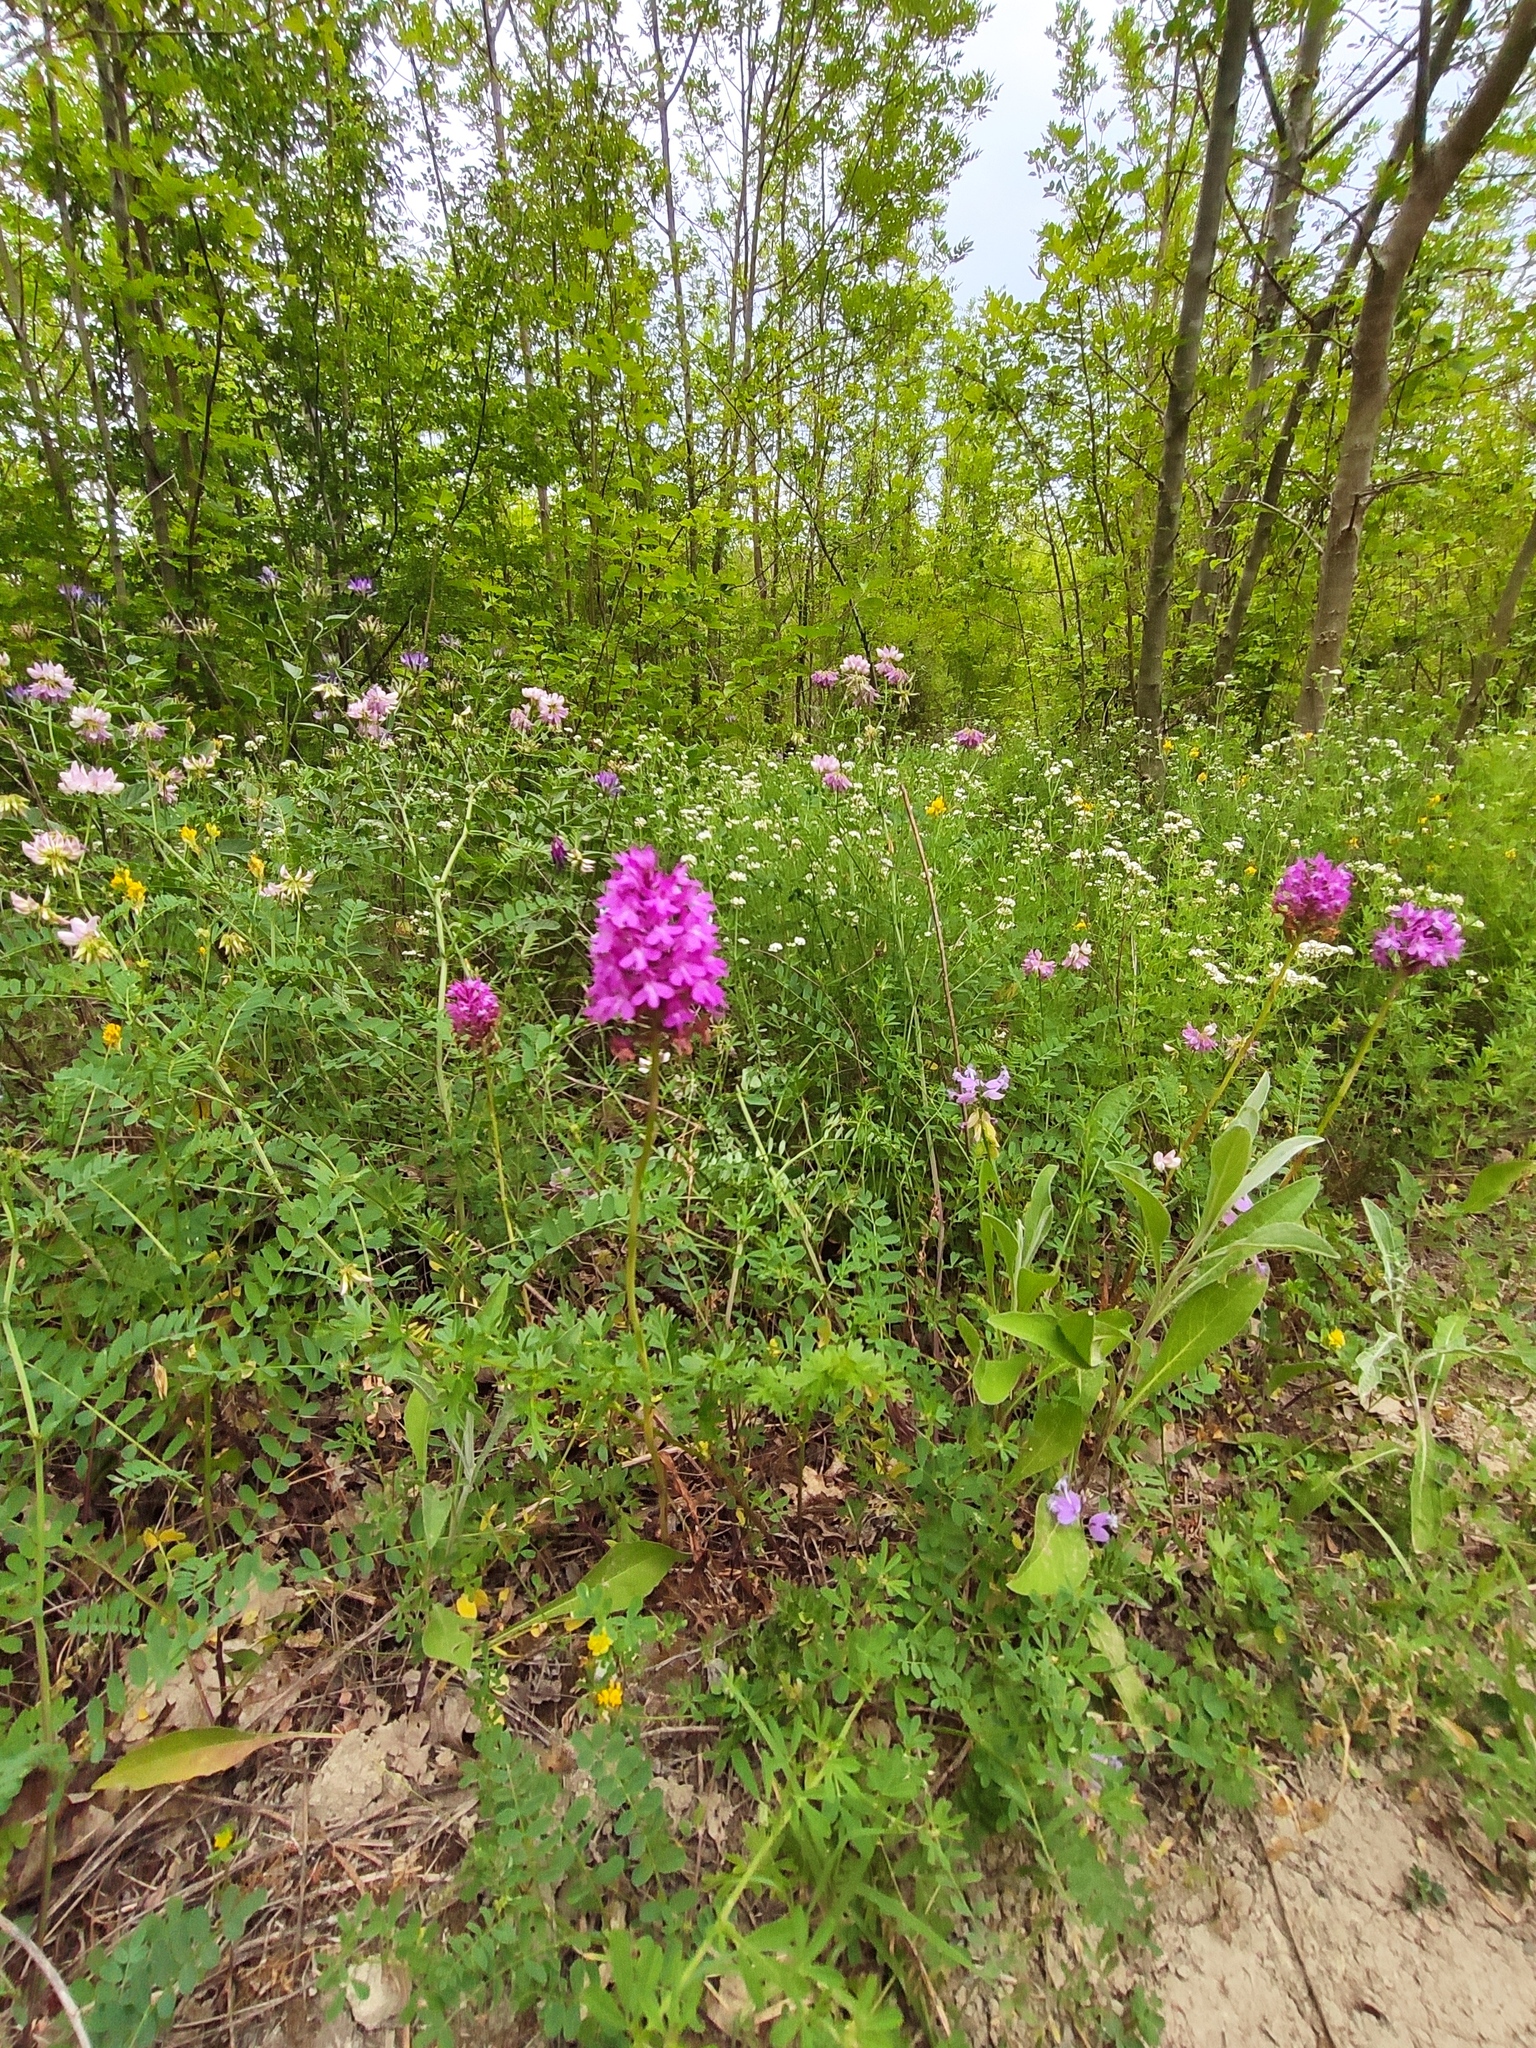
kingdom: Plantae
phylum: Tracheophyta
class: Liliopsida
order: Asparagales
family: Orchidaceae
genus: Anacamptis
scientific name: Anacamptis pyramidalis
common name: Pyramidal orchid
